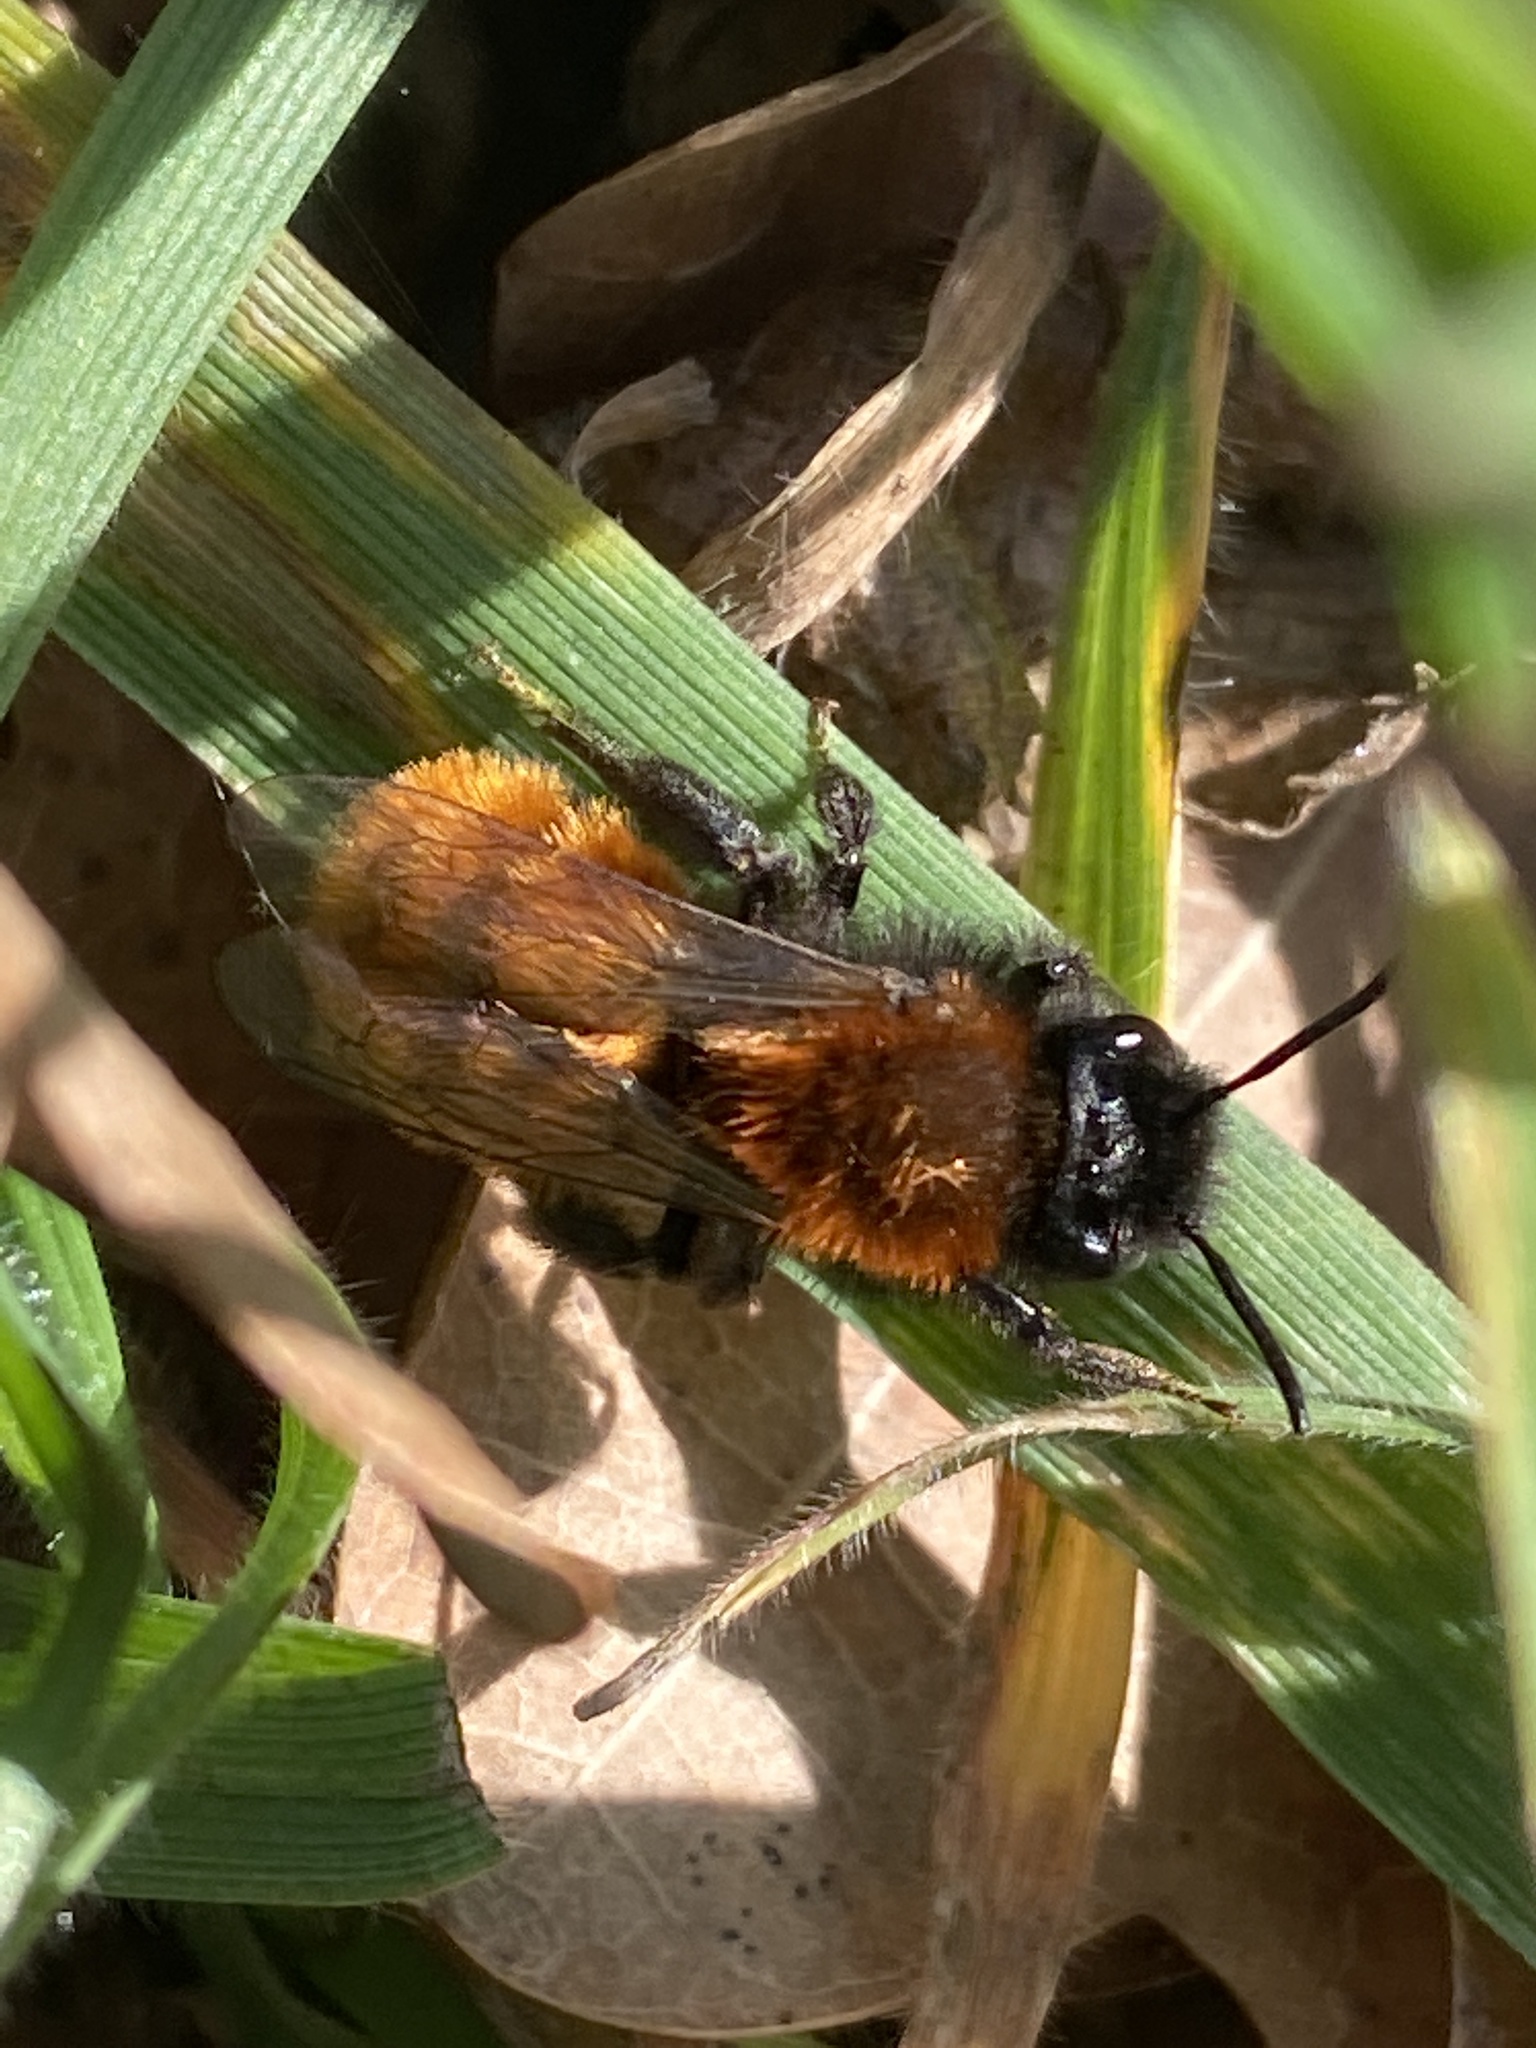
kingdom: Animalia
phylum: Arthropoda
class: Insecta
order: Hymenoptera
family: Andrenidae
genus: Andrena
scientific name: Andrena fulva
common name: Tawny mining bee
